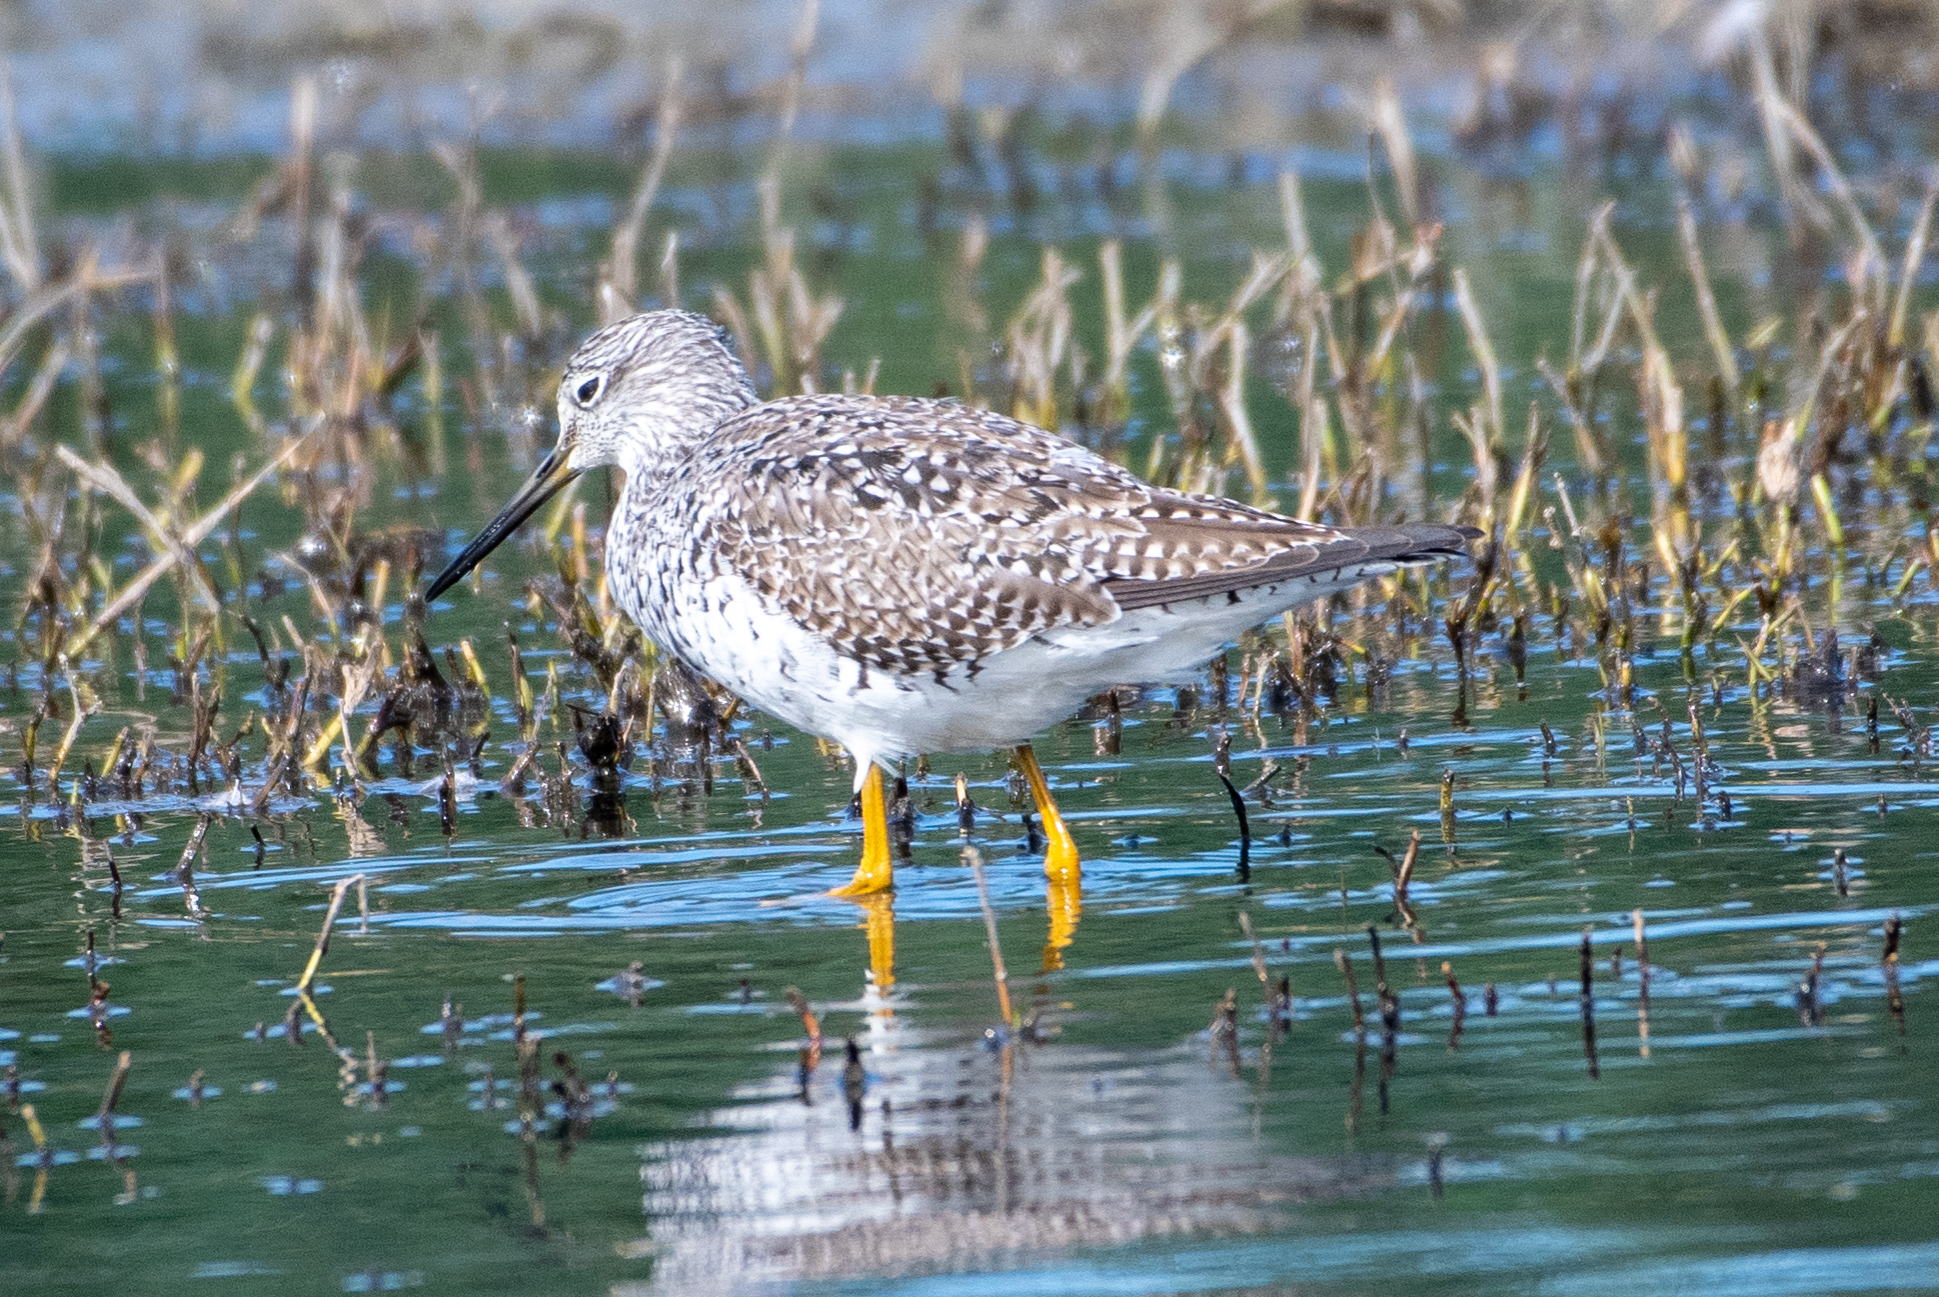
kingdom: Animalia
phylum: Chordata
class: Aves
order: Charadriiformes
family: Scolopacidae
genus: Tringa
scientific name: Tringa melanoleuca
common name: Greater yellowlegs
